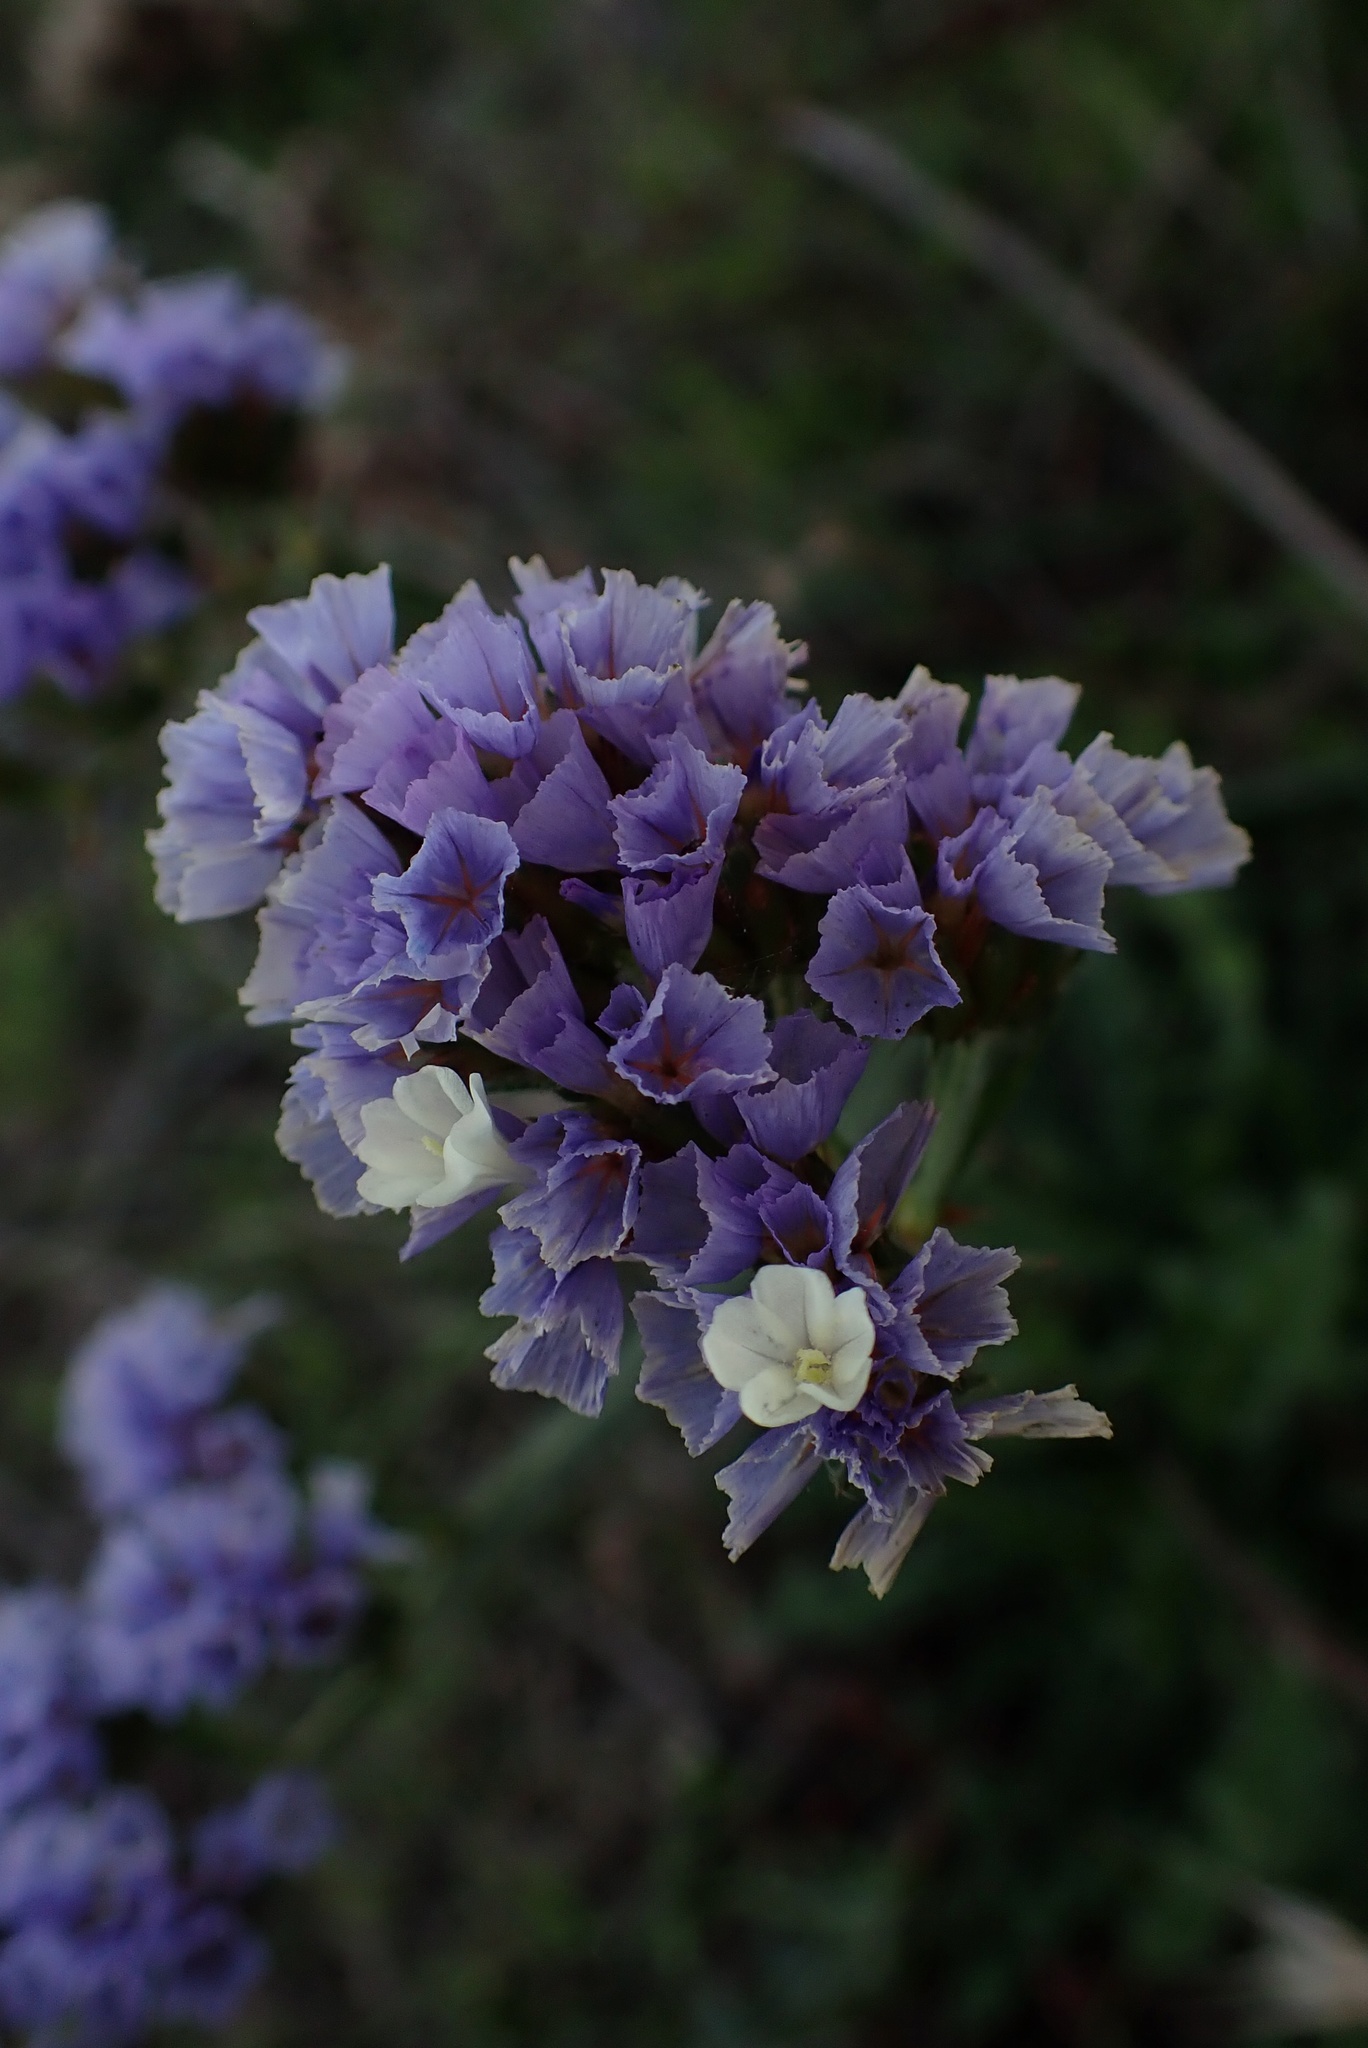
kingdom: Plantae
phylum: Tracheophyta
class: Magnoliopsida
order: Caryophyllales
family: Plumbaginaceae
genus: Limonium
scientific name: Limonium sinuatum
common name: Statice
